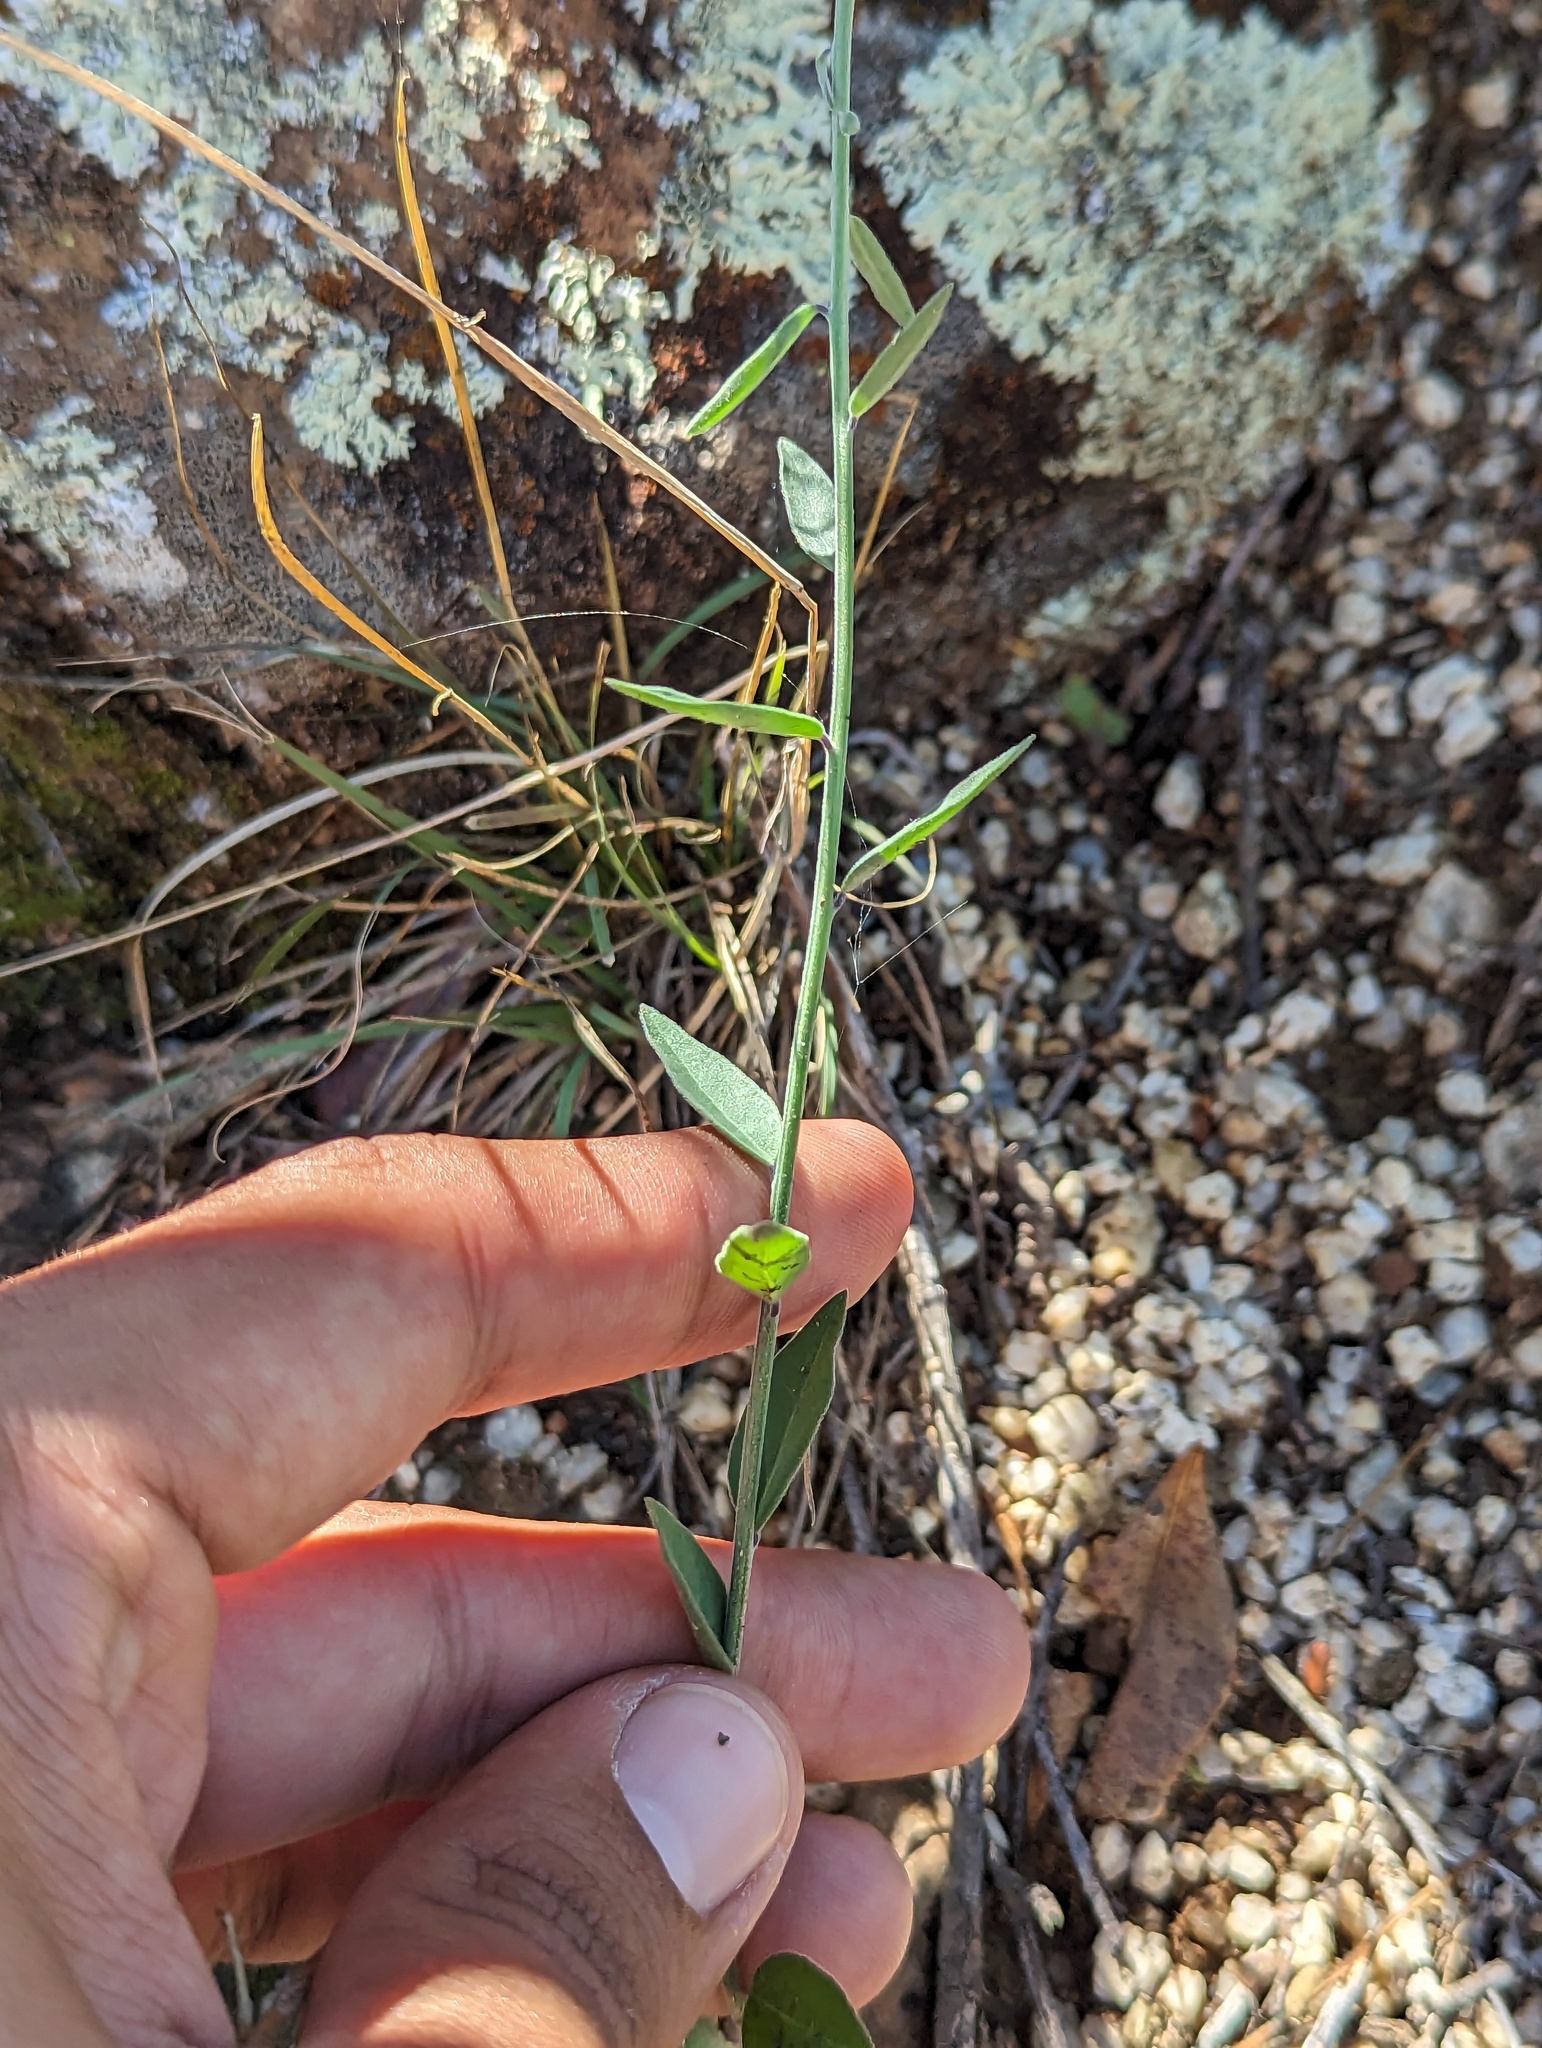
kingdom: Plantae
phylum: Tracheophyta
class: Magnoliopsida
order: Fabales
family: Polygalaceae
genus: Polygala
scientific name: Polygala magdalenae
